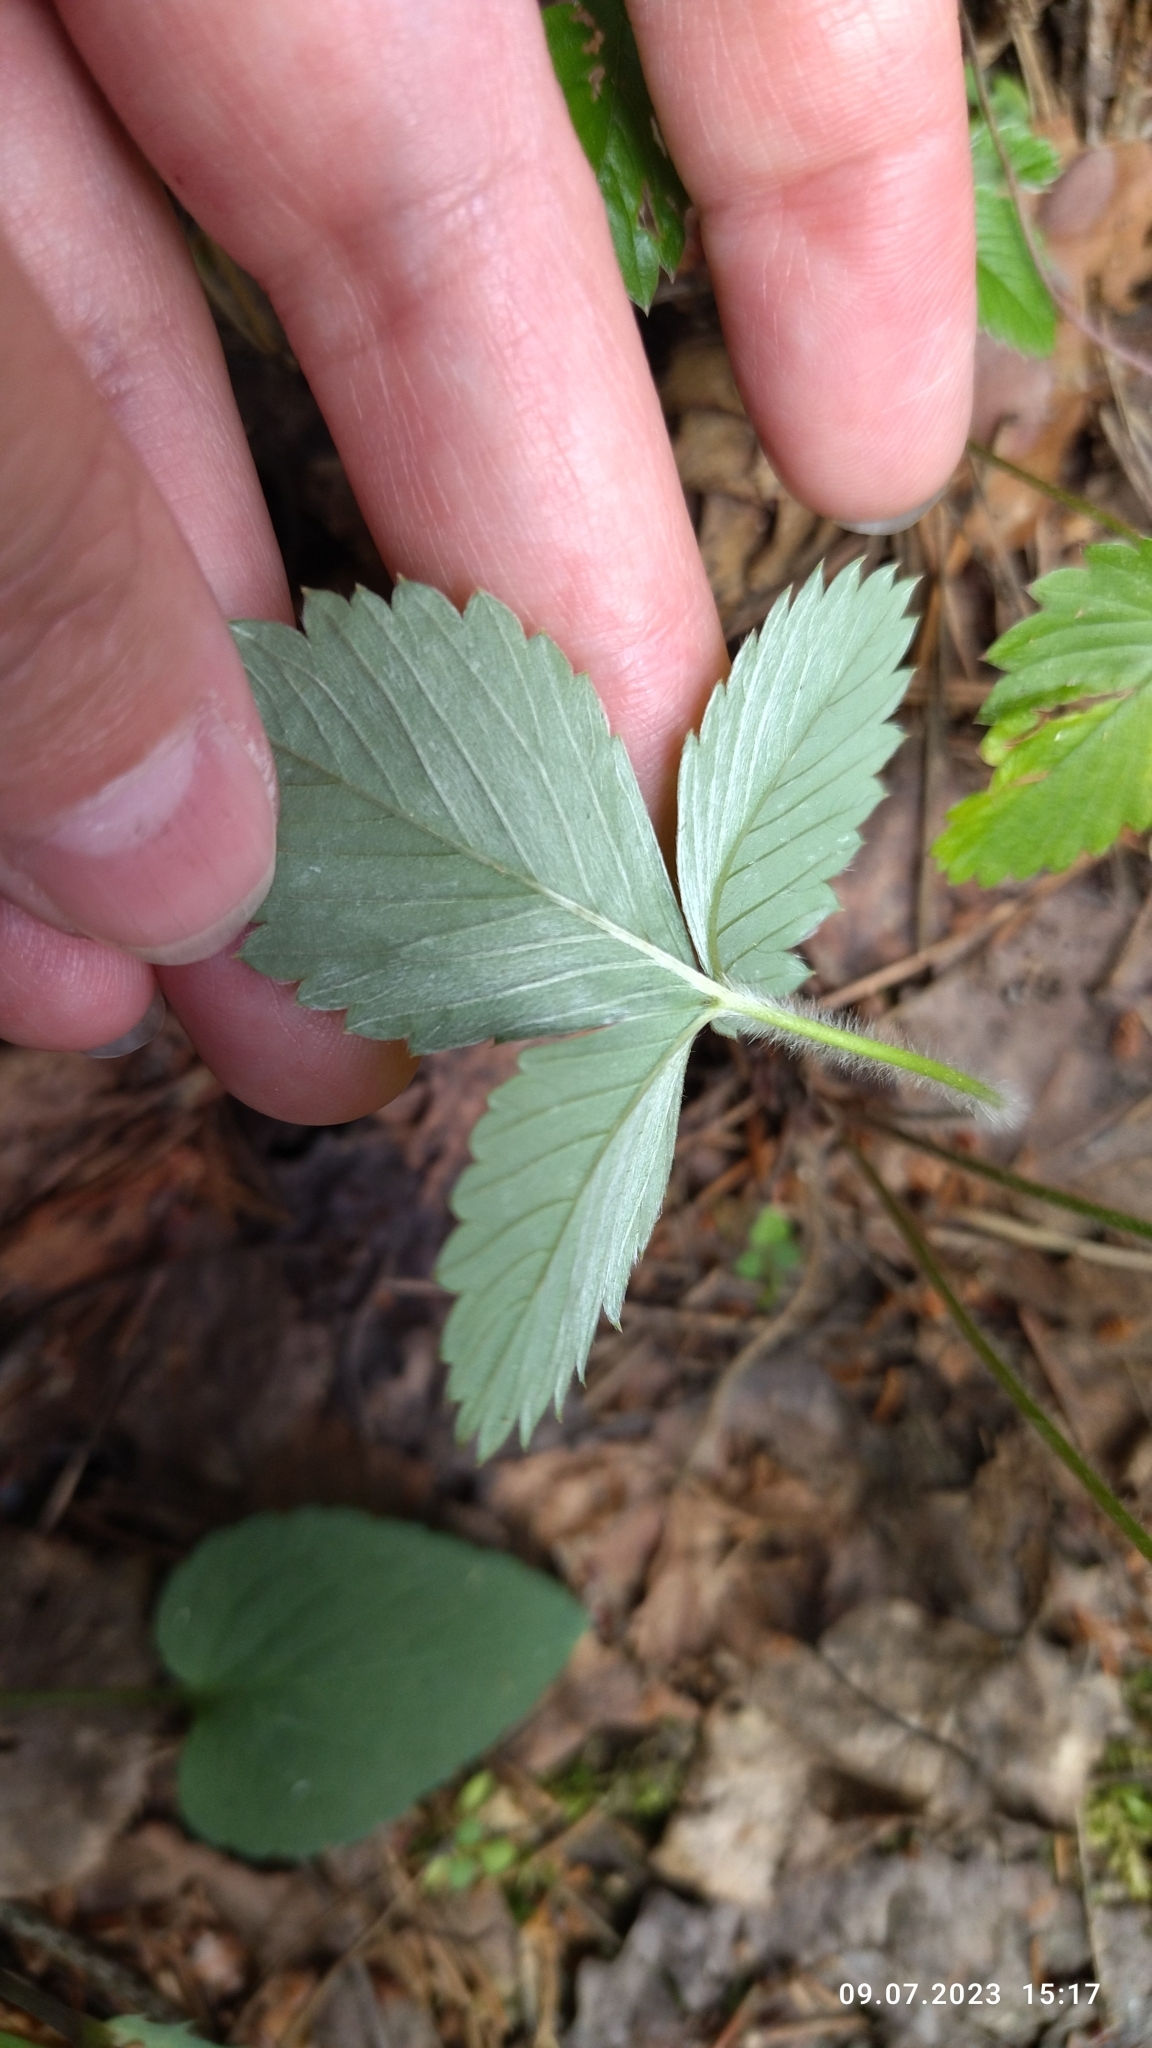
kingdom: Plantae
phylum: Tracheophyta
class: Magnoliopsida
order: Rosales
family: Rosaceae
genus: Fragaria
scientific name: Fragaria vesca
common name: Wild strawberry
